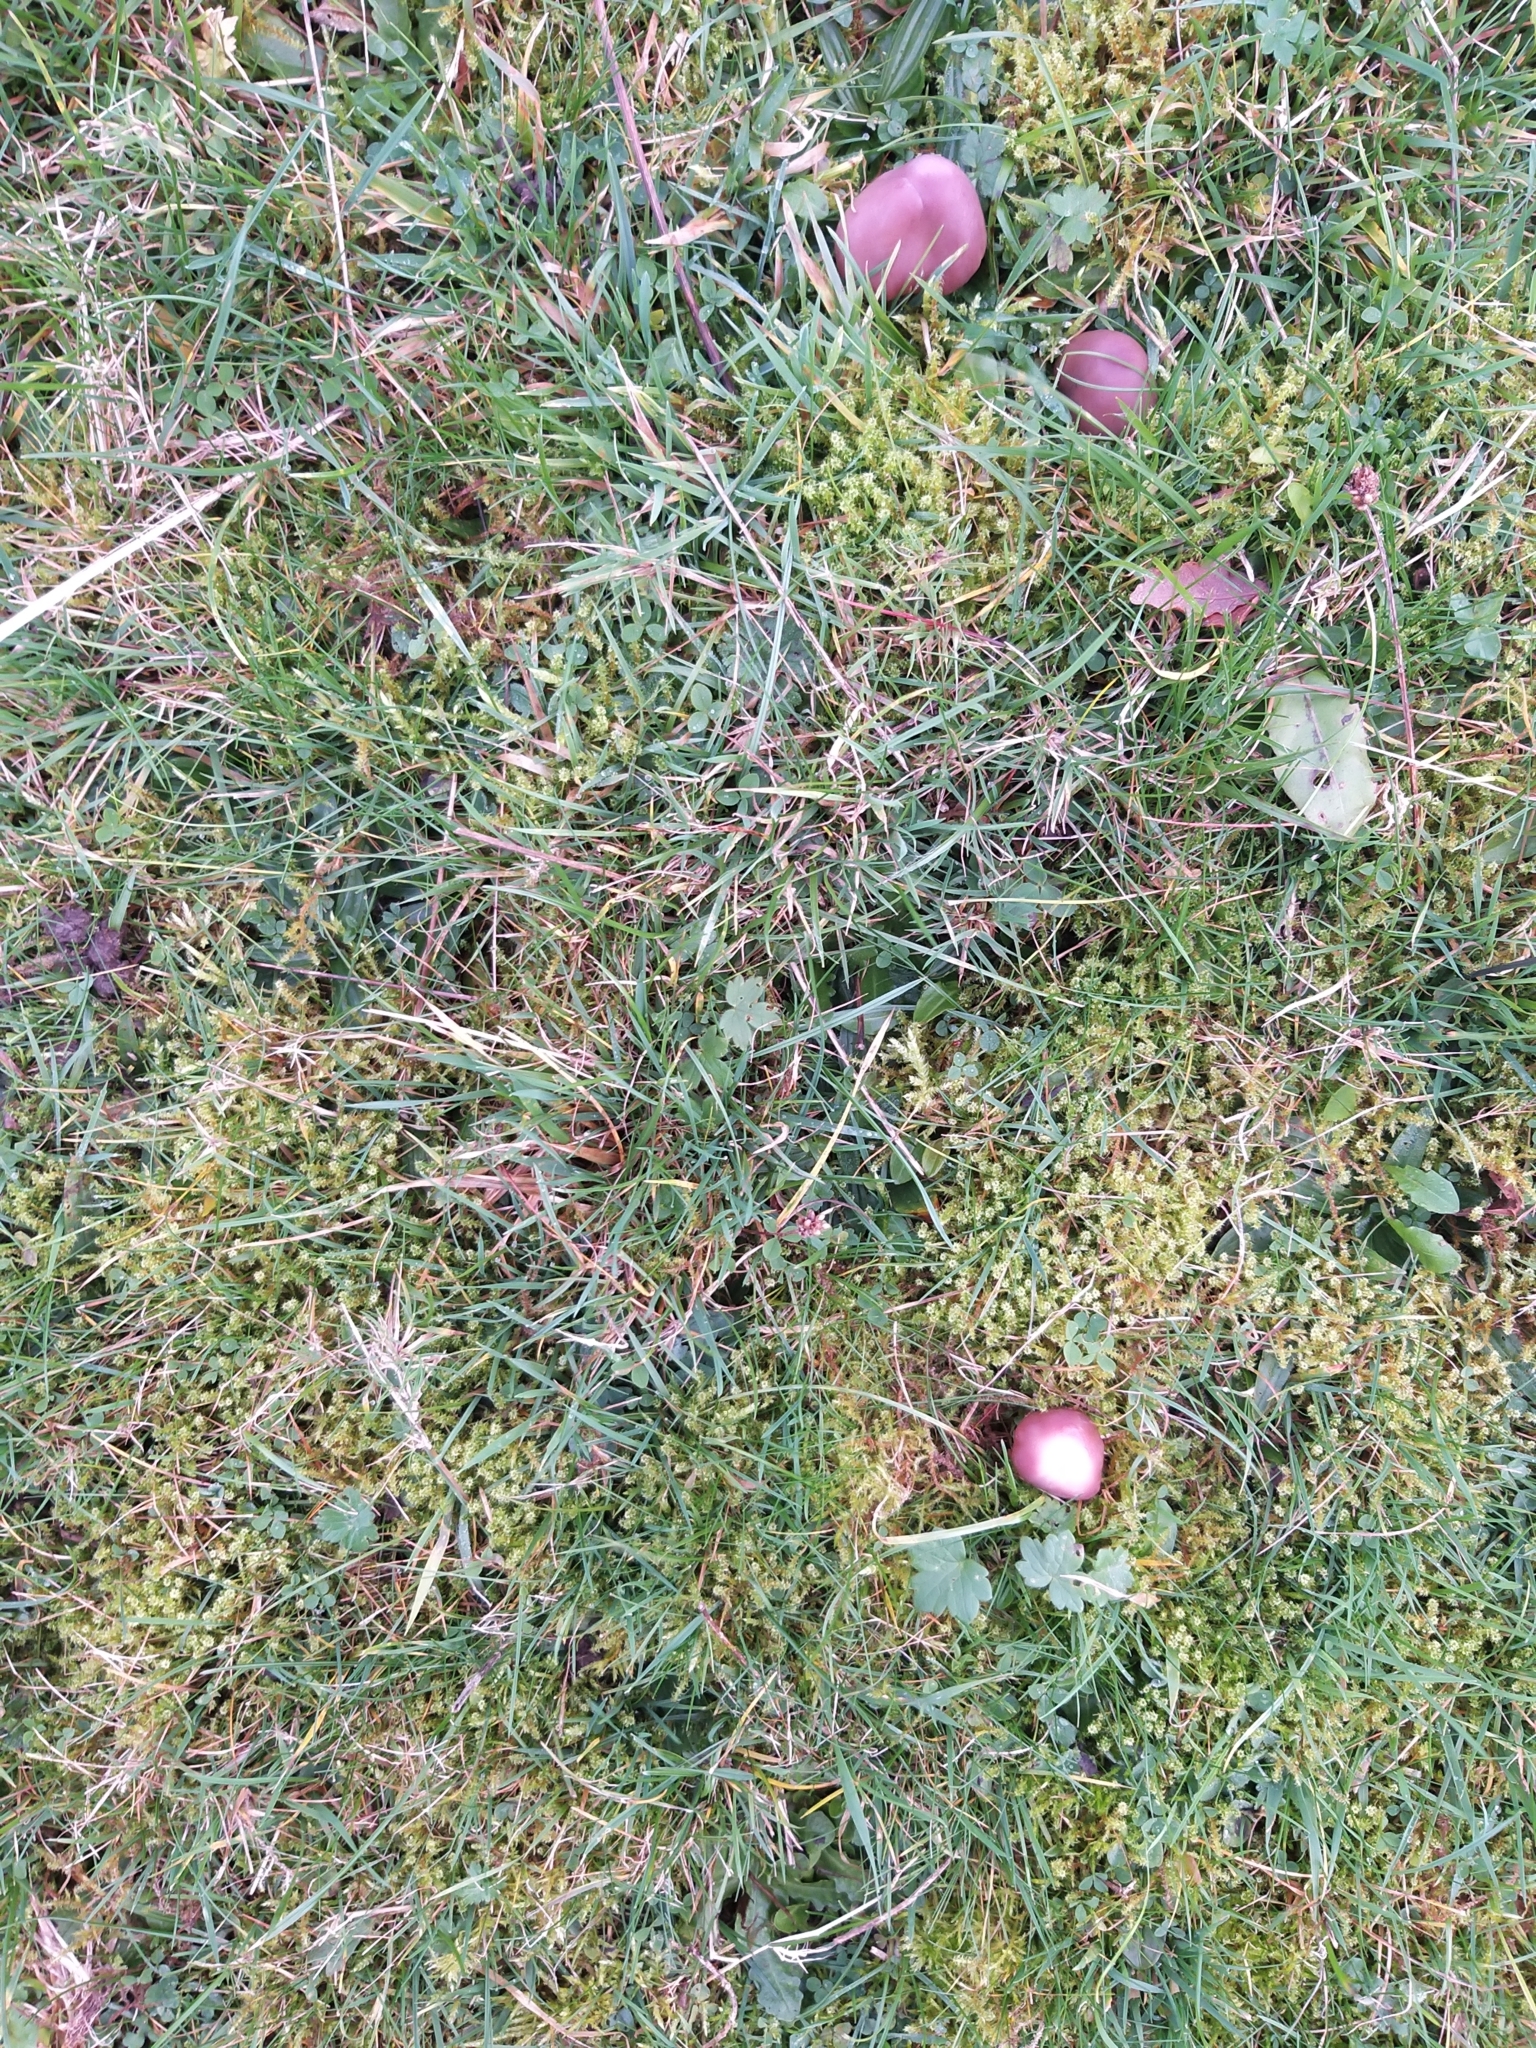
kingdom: Fungi
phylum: Basidiomycota
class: Agaricomycetes
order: Agaricales
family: Hygrophoraceae
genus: Gliophorus
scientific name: Gliophorus reginae
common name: Jubilee waxcap
